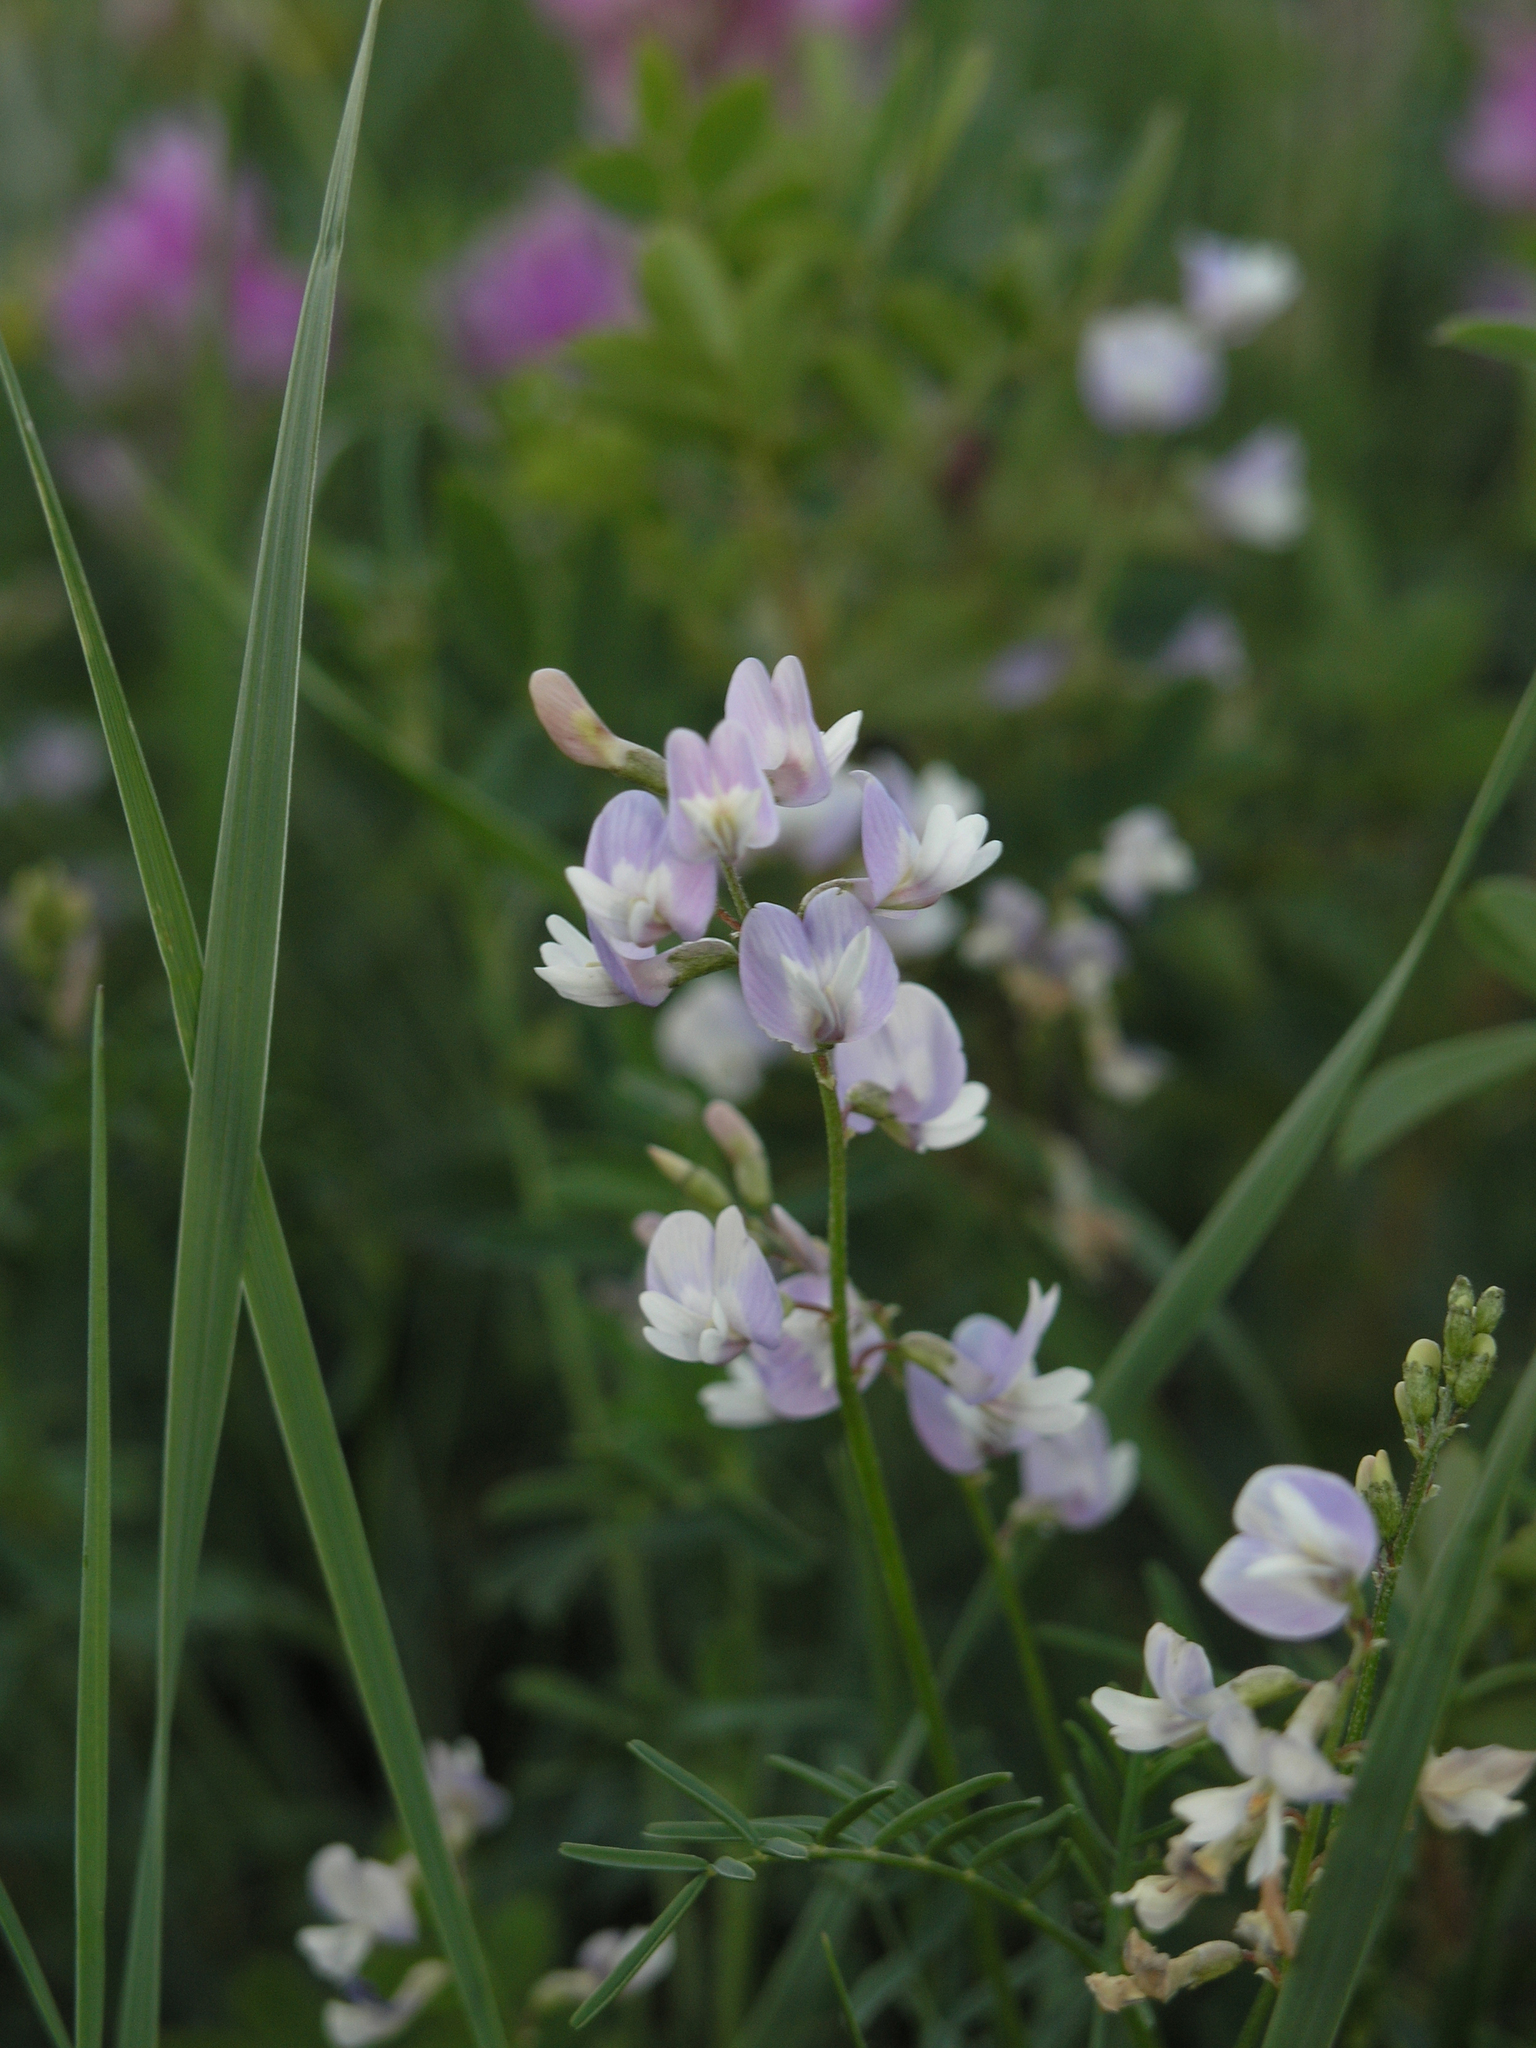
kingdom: Plantae
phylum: Tracheophyta
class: Magnoliopsida
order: Fabales
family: Fabaceae
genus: Astragalus
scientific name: Astragalus austriacus
